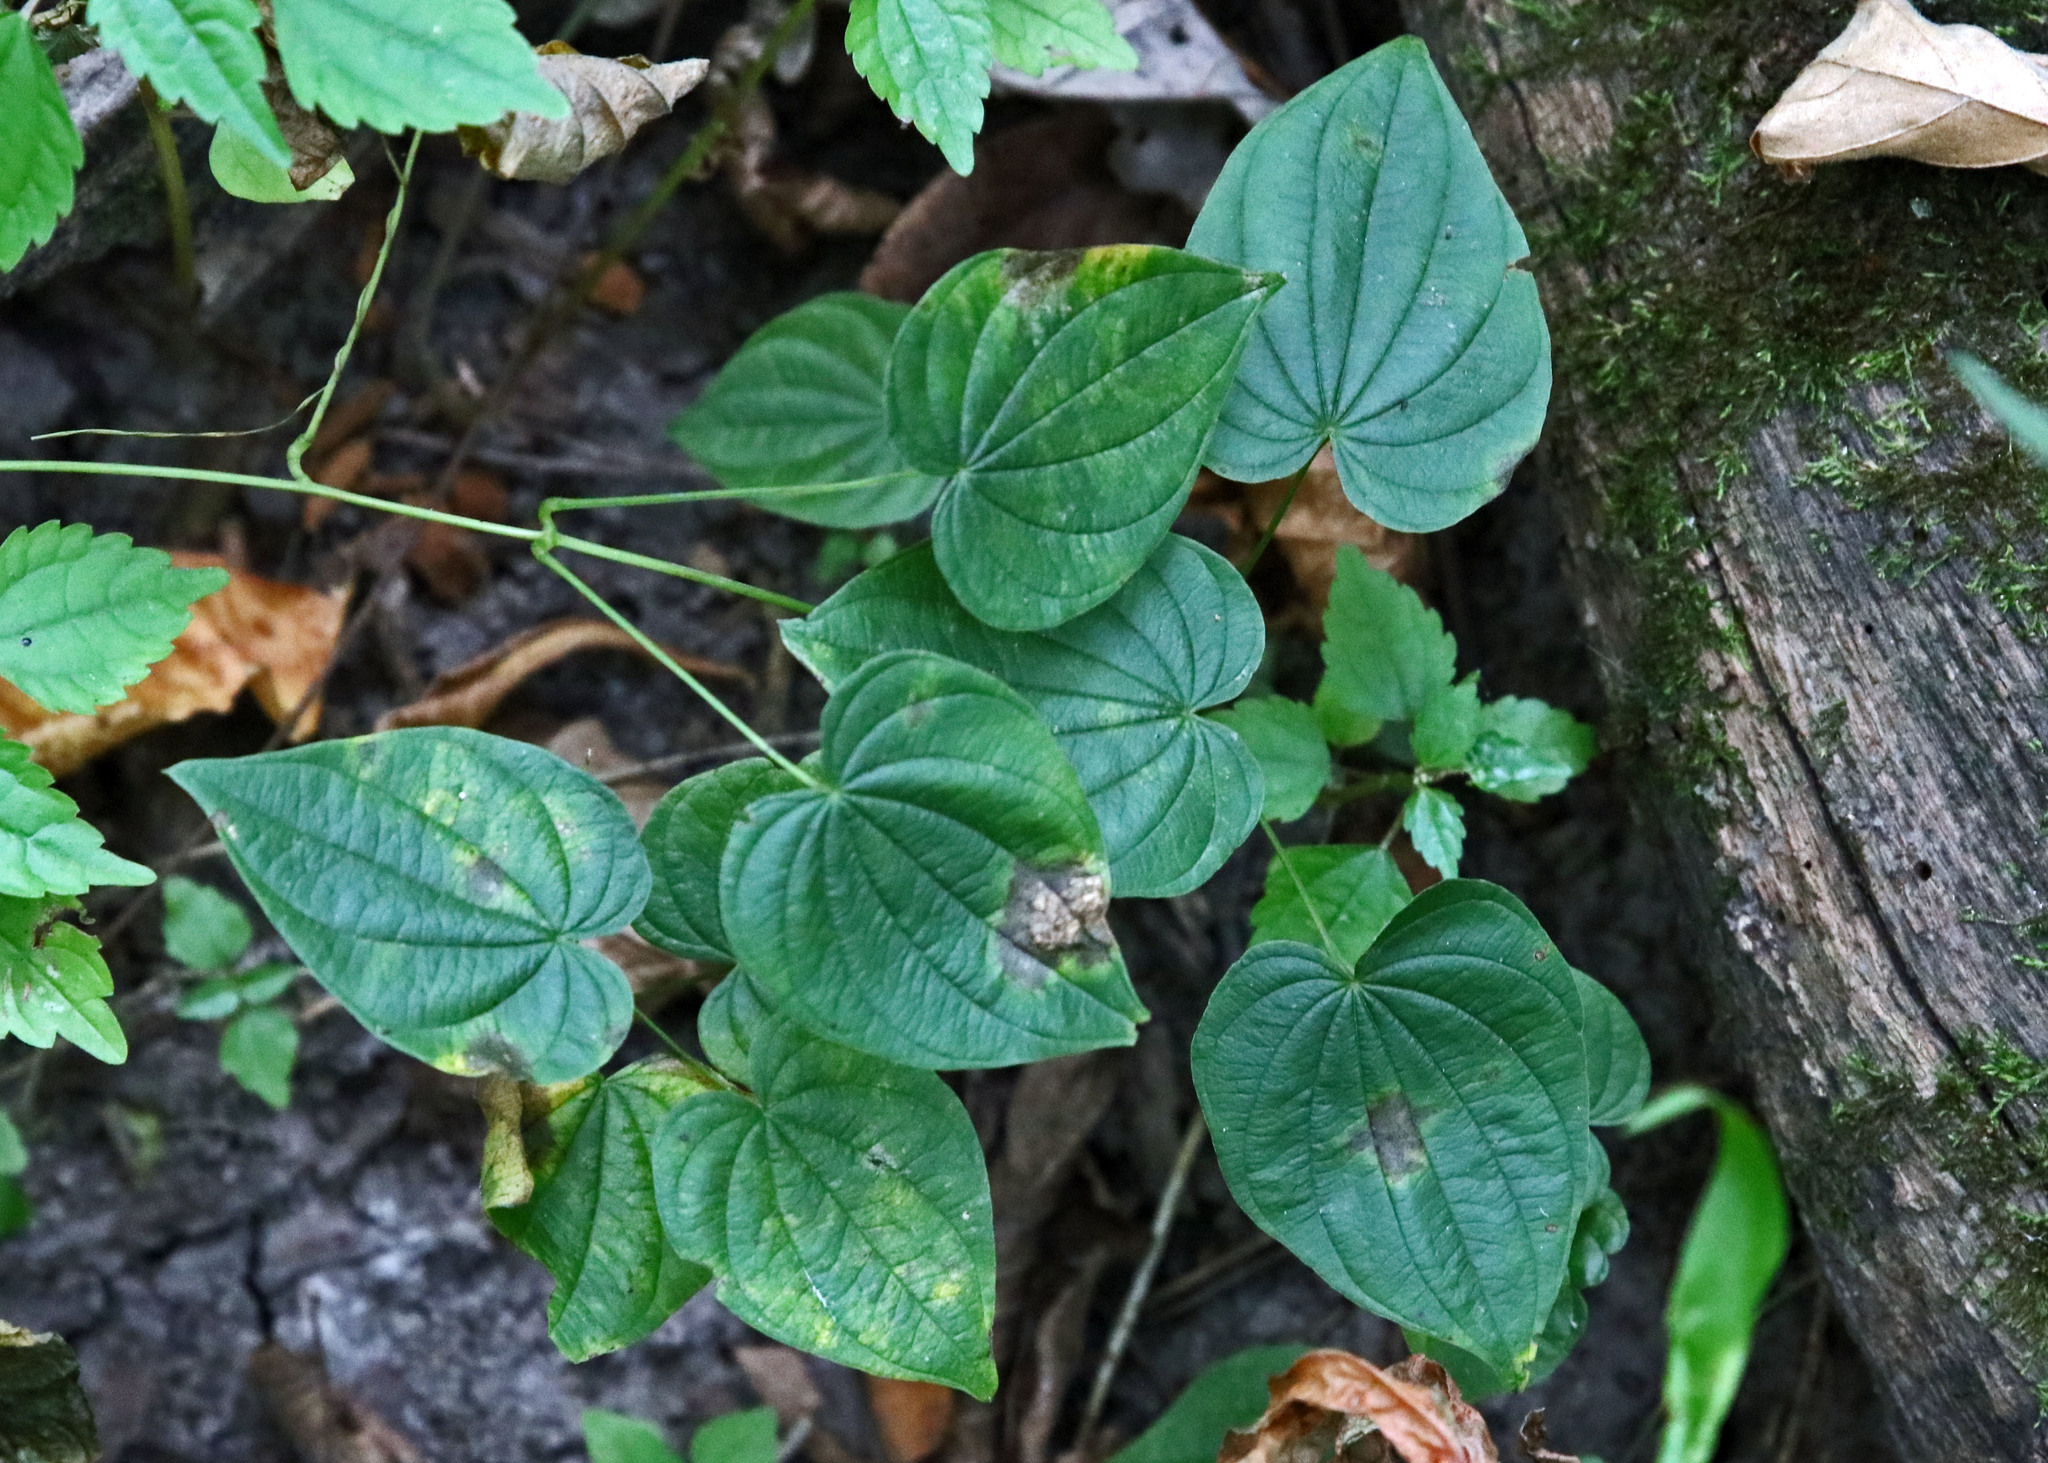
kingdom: Plantae
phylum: Tracheophyta
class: Liliopsida
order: Dioscoreales
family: Dioscoreaceae
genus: Dioscorea
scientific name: Dioscorea villosa
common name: Wild yam
